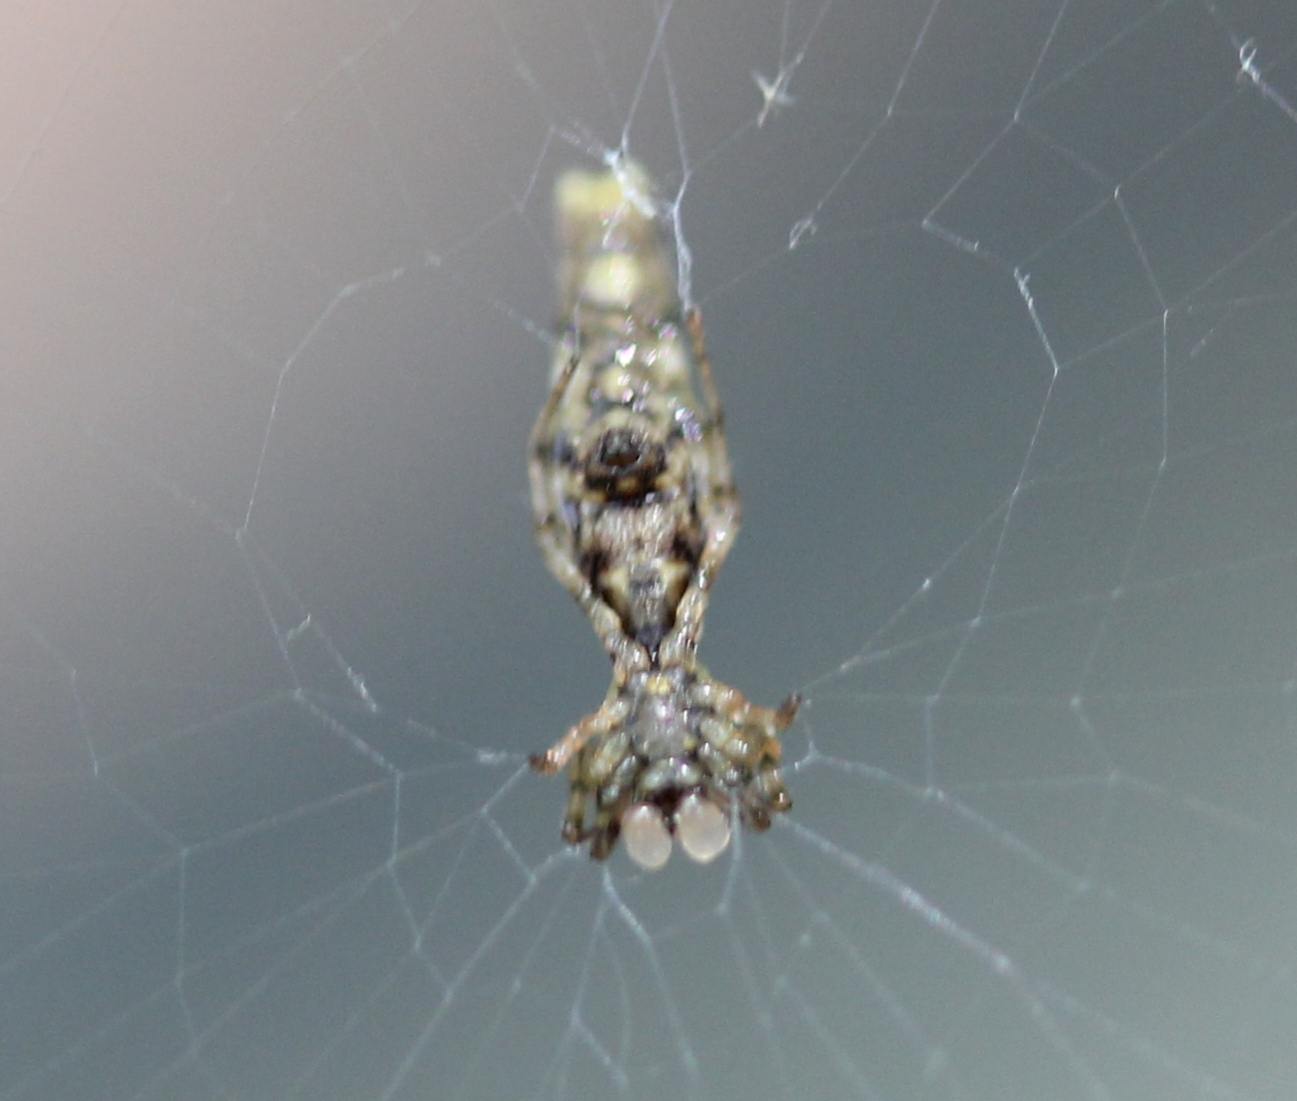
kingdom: Animalia
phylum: Arthropoda
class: Arachnida
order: Araneae
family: Araneidae
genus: Micrathena
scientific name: Micrathena gracilis
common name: Orb weavers
